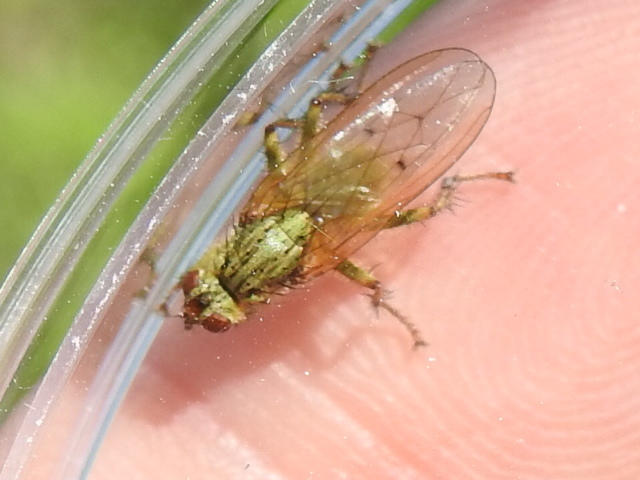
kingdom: Animalia
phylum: Arthropoda
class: Insecta
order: Diptera
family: Scathophagidae
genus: Scathophaga
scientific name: Scathophaga stercoraria
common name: Yellow dung fly
